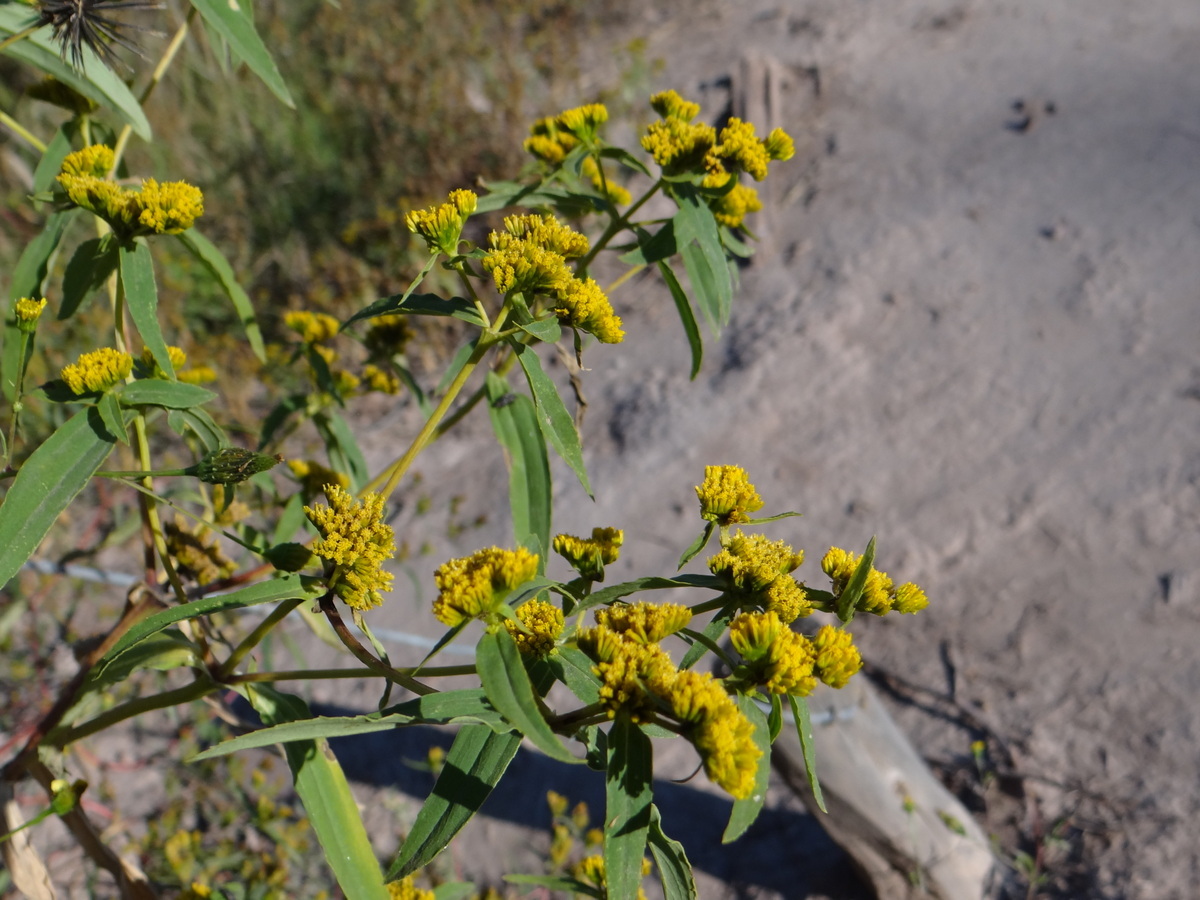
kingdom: Plantae
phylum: Tracheophyta
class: Magnoliopsida
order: Asterales
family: Asteraceae
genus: Flaveria
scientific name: Flaveria bidentis
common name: Coastal plain yellowtops
